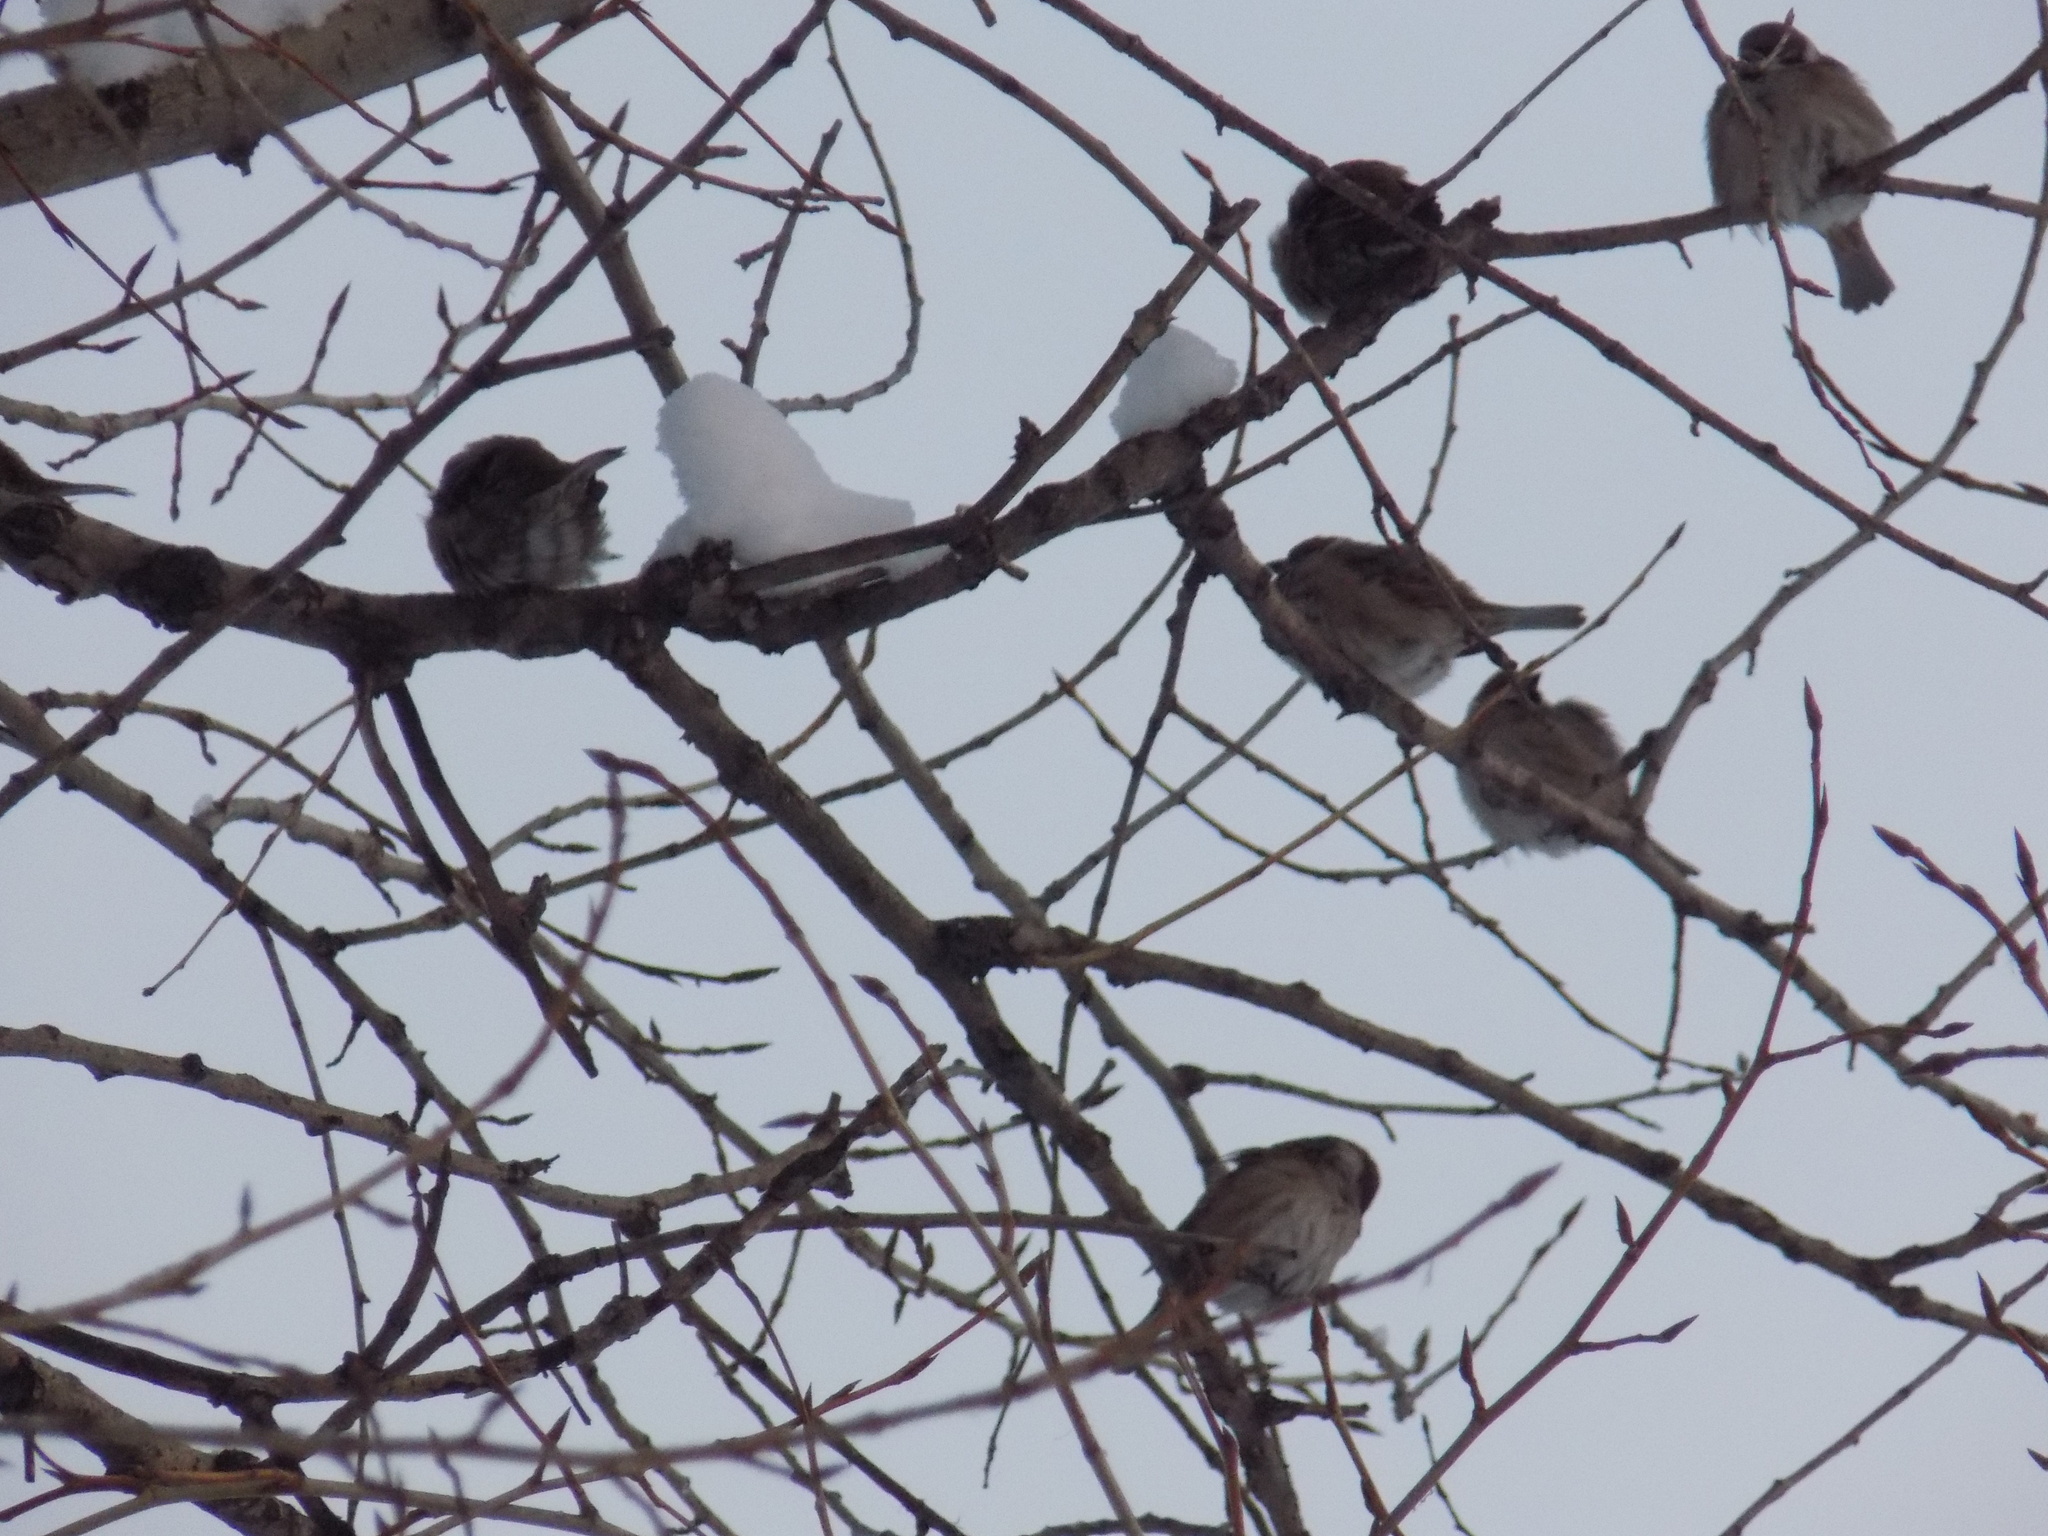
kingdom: Animalia
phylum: Chordata
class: Aves
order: Passeriformes
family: Passeridae
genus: Passer
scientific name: Passer montanus
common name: Eurasian tree sparrow
